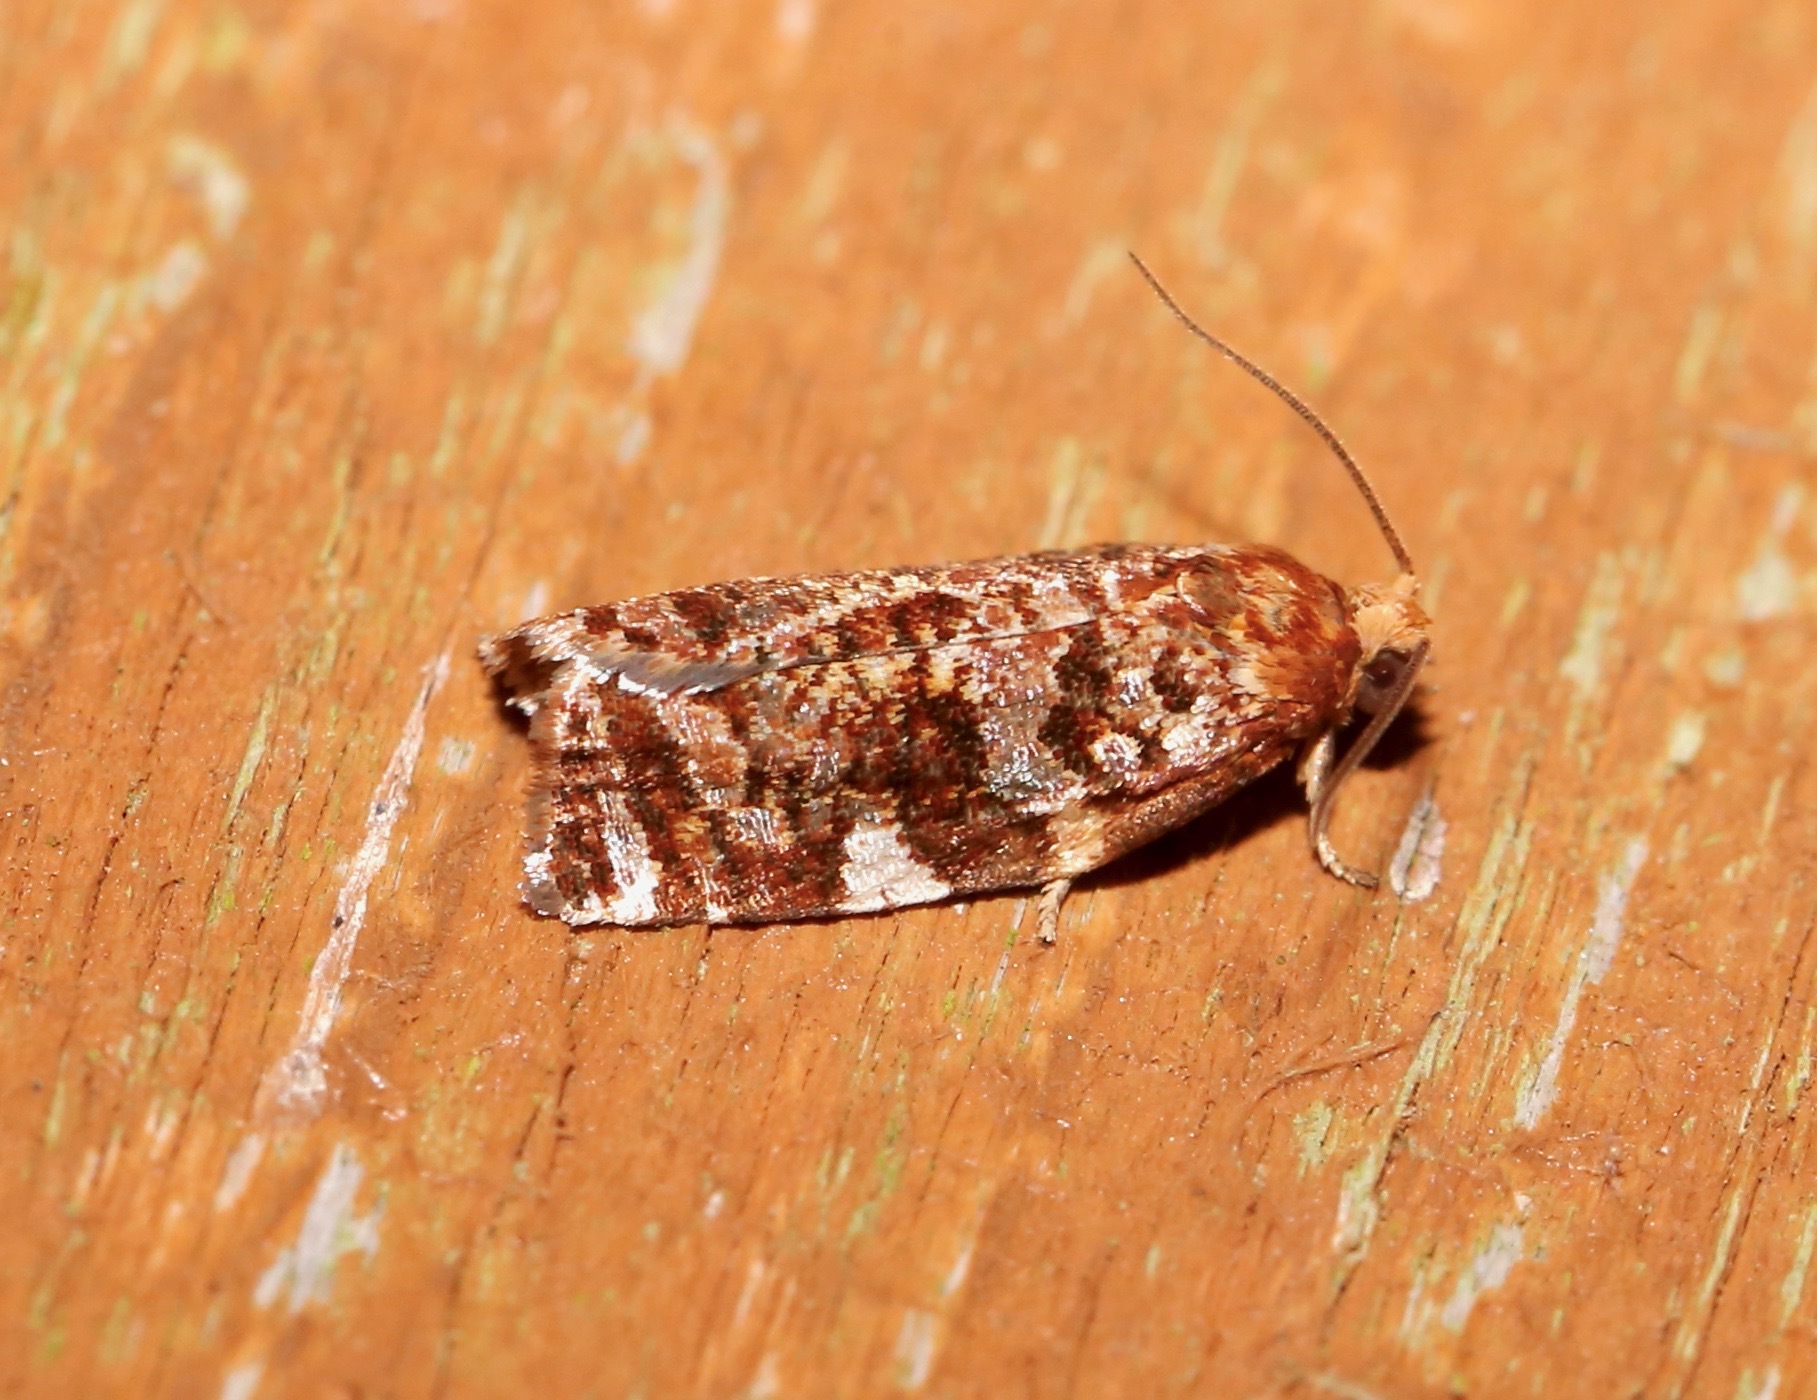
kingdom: Animalia
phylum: Arthropoda
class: Insecta
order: Lepidoptera
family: Tortricidae
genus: Archips
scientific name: Archips argyrospila
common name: Fruit-tree leafroller moth
